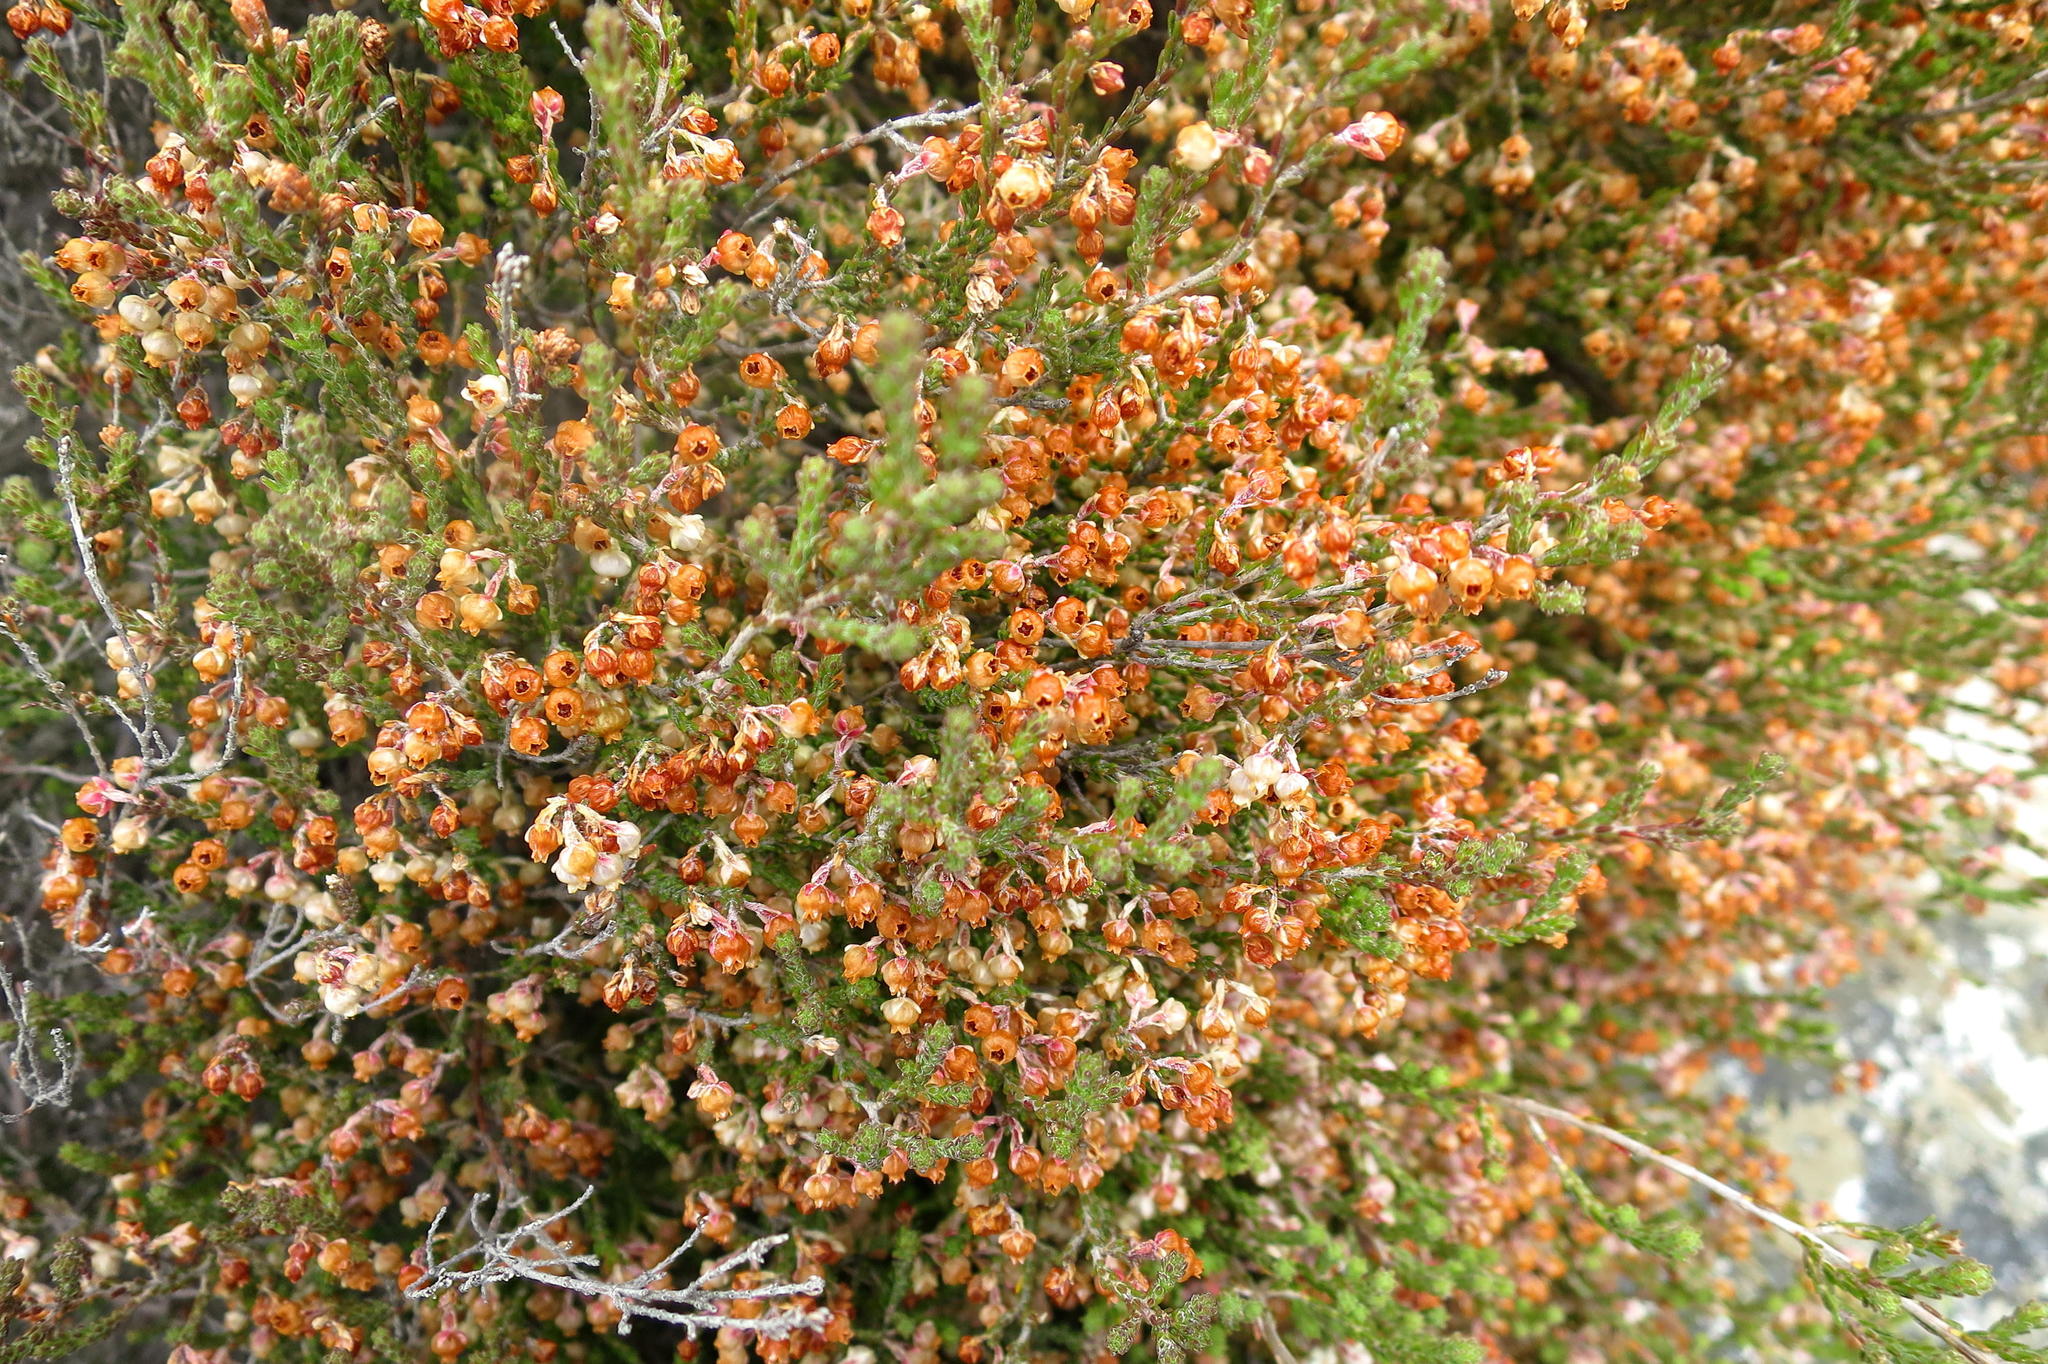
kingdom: Plantae
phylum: Tracheophyta
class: Magnoliopsida
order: Ericales
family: Ericaceae
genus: Erica
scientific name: Erica syngenesia
